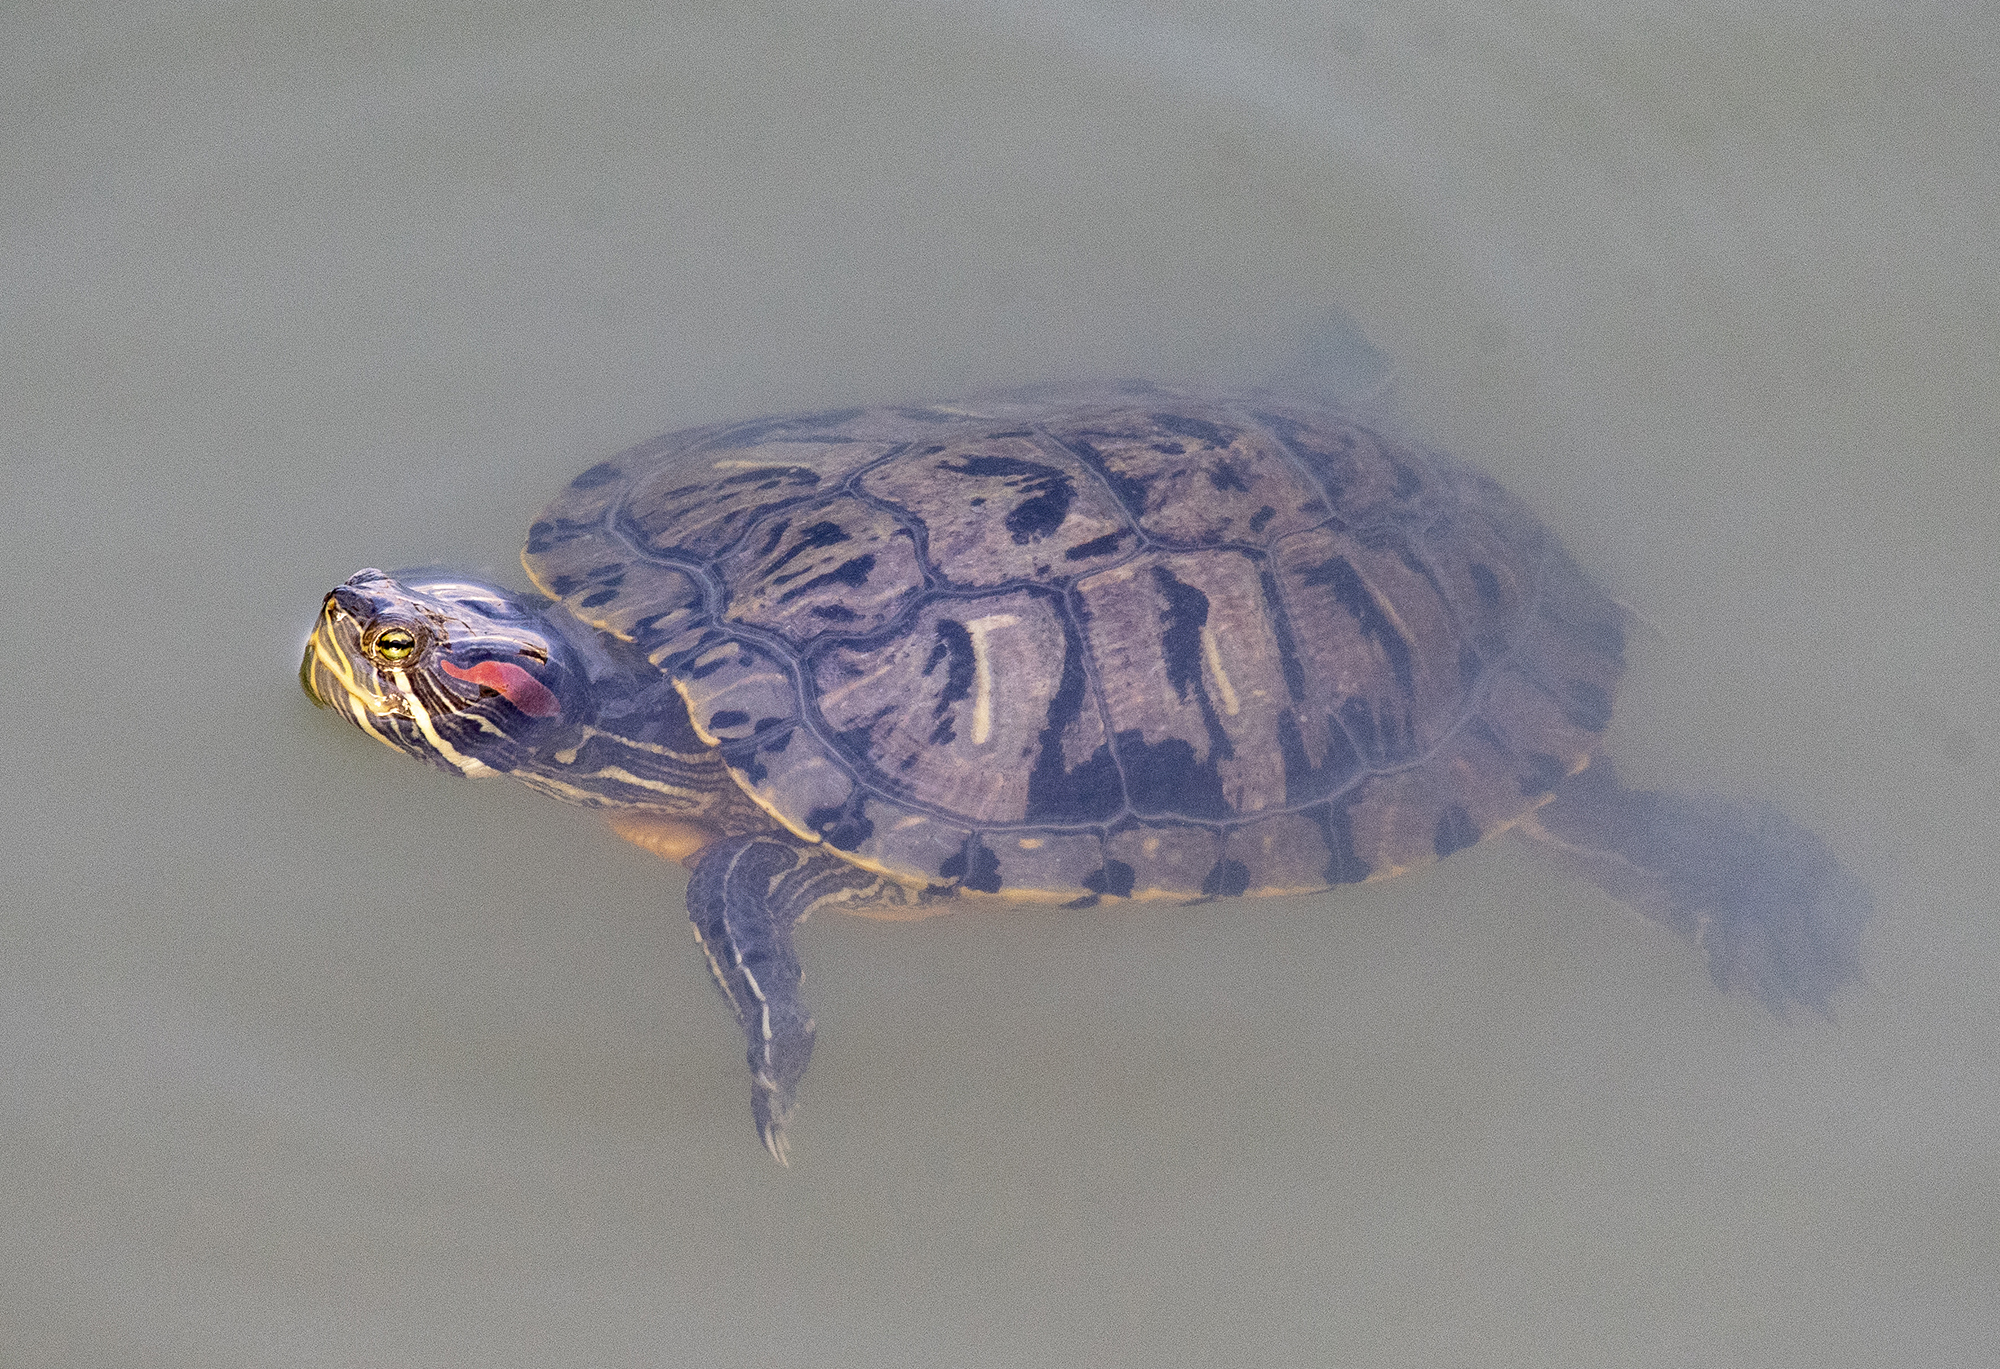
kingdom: Animalia
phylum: Chordata
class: Testudines
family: Emydidae
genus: Trachemys
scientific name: Trachemys scripta
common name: Slider
